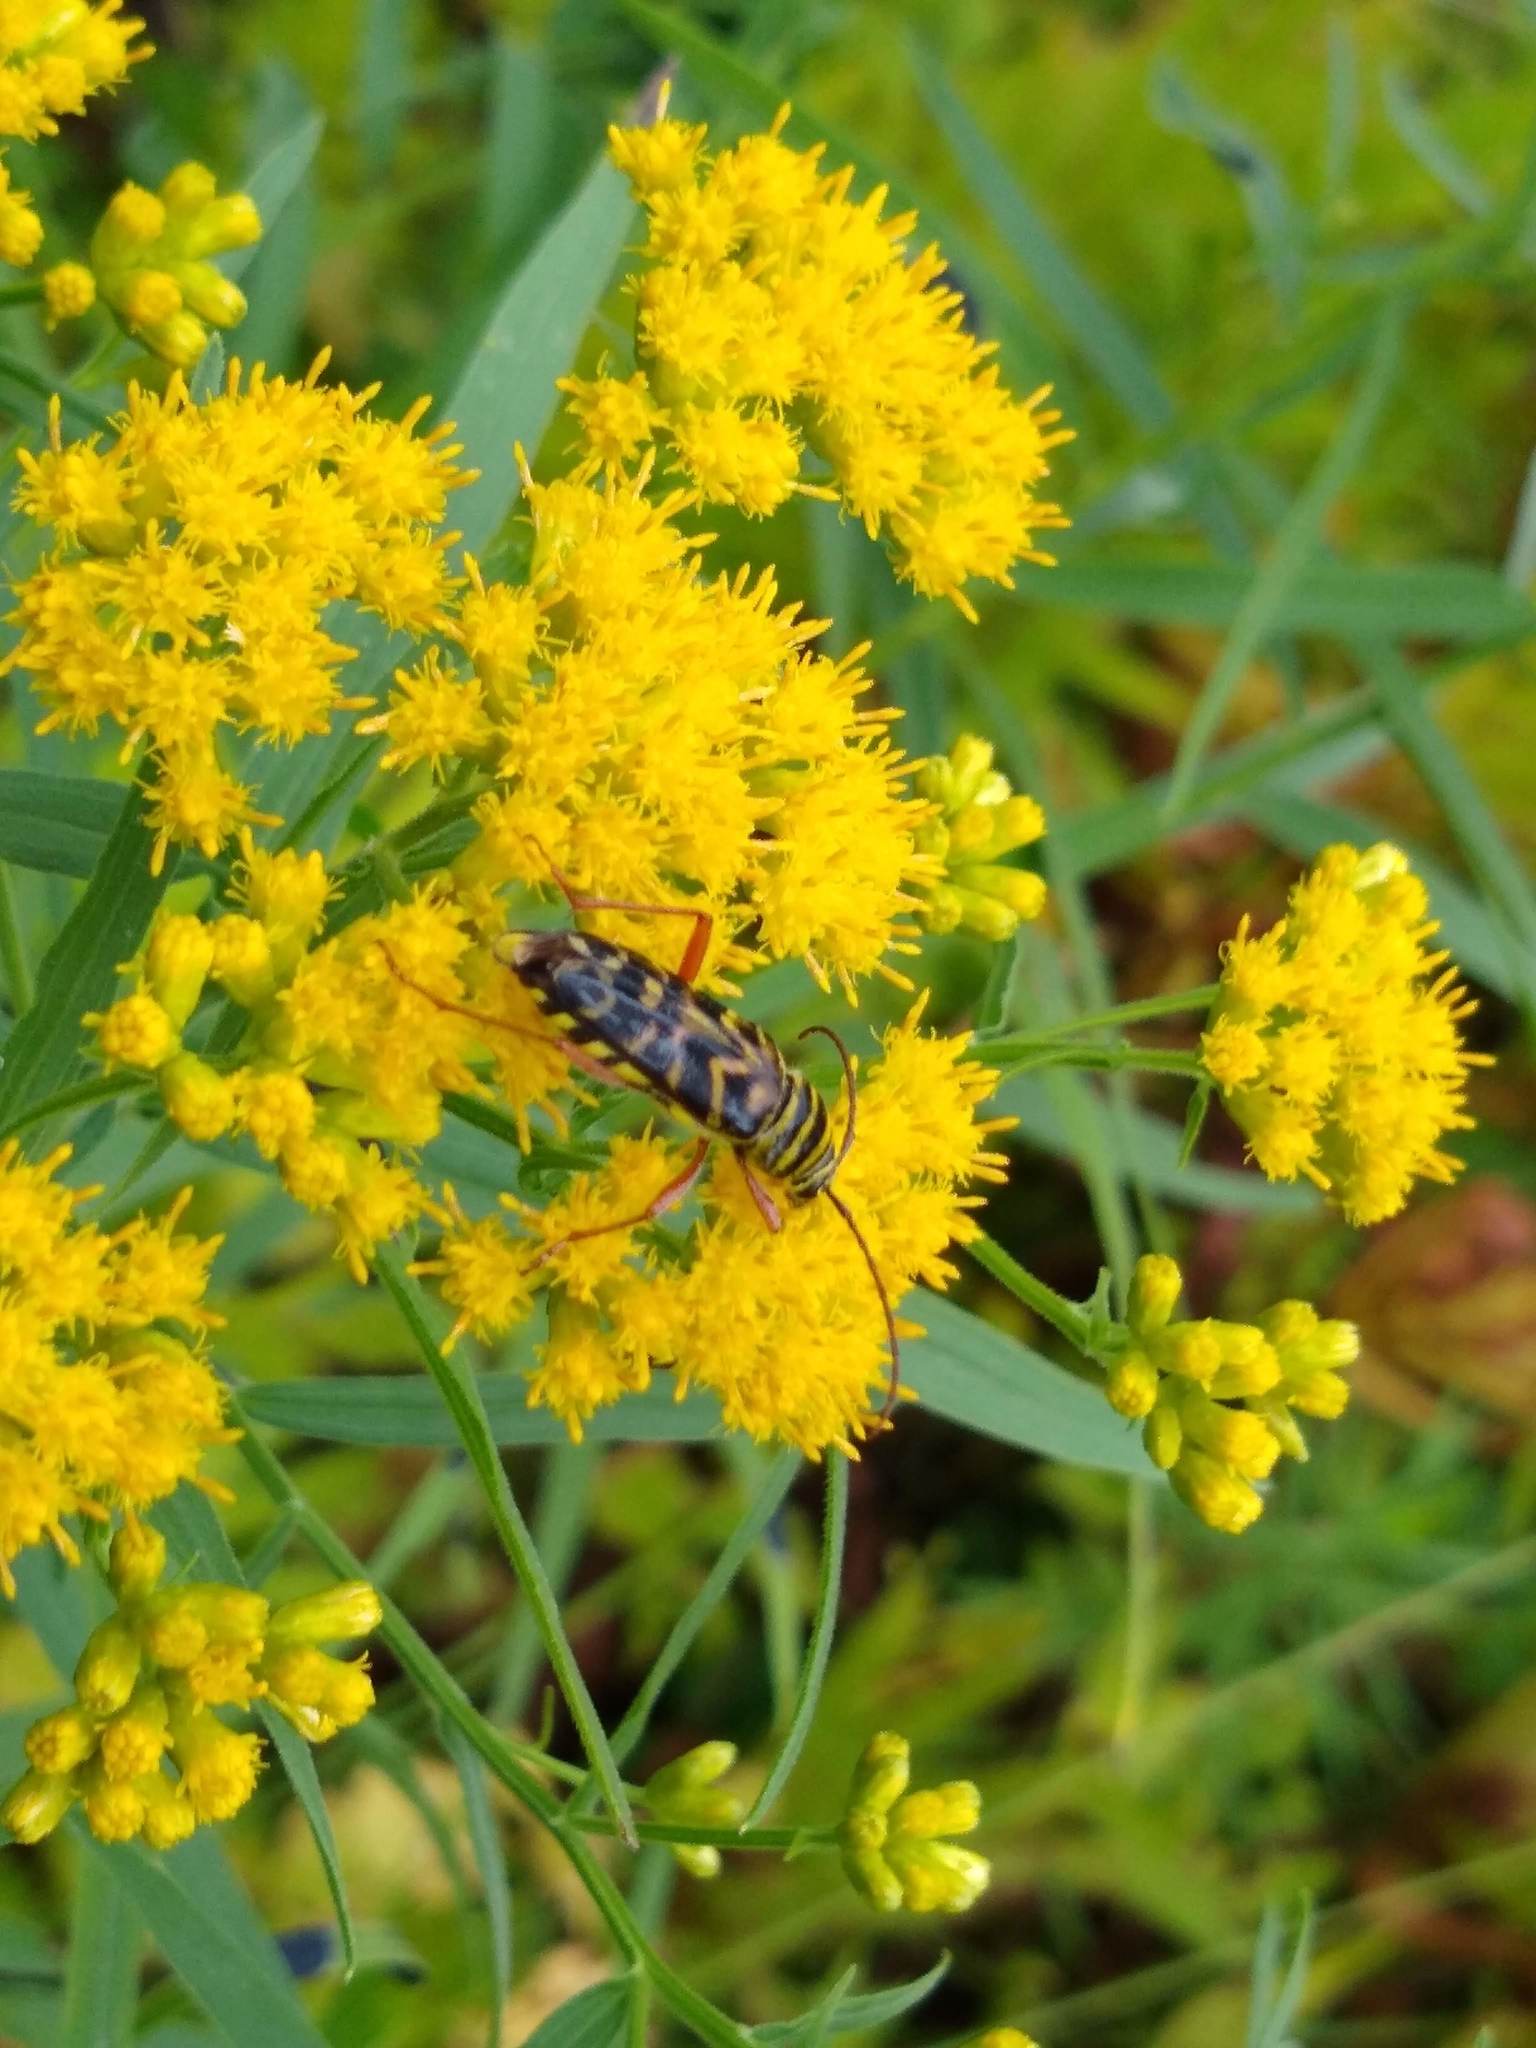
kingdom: Animalia
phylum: Arthropoda
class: Insecta
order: Coleoptera
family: Cerambycidae
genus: Megacyllene
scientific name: Megacyllene robiniae
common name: Locust borer
